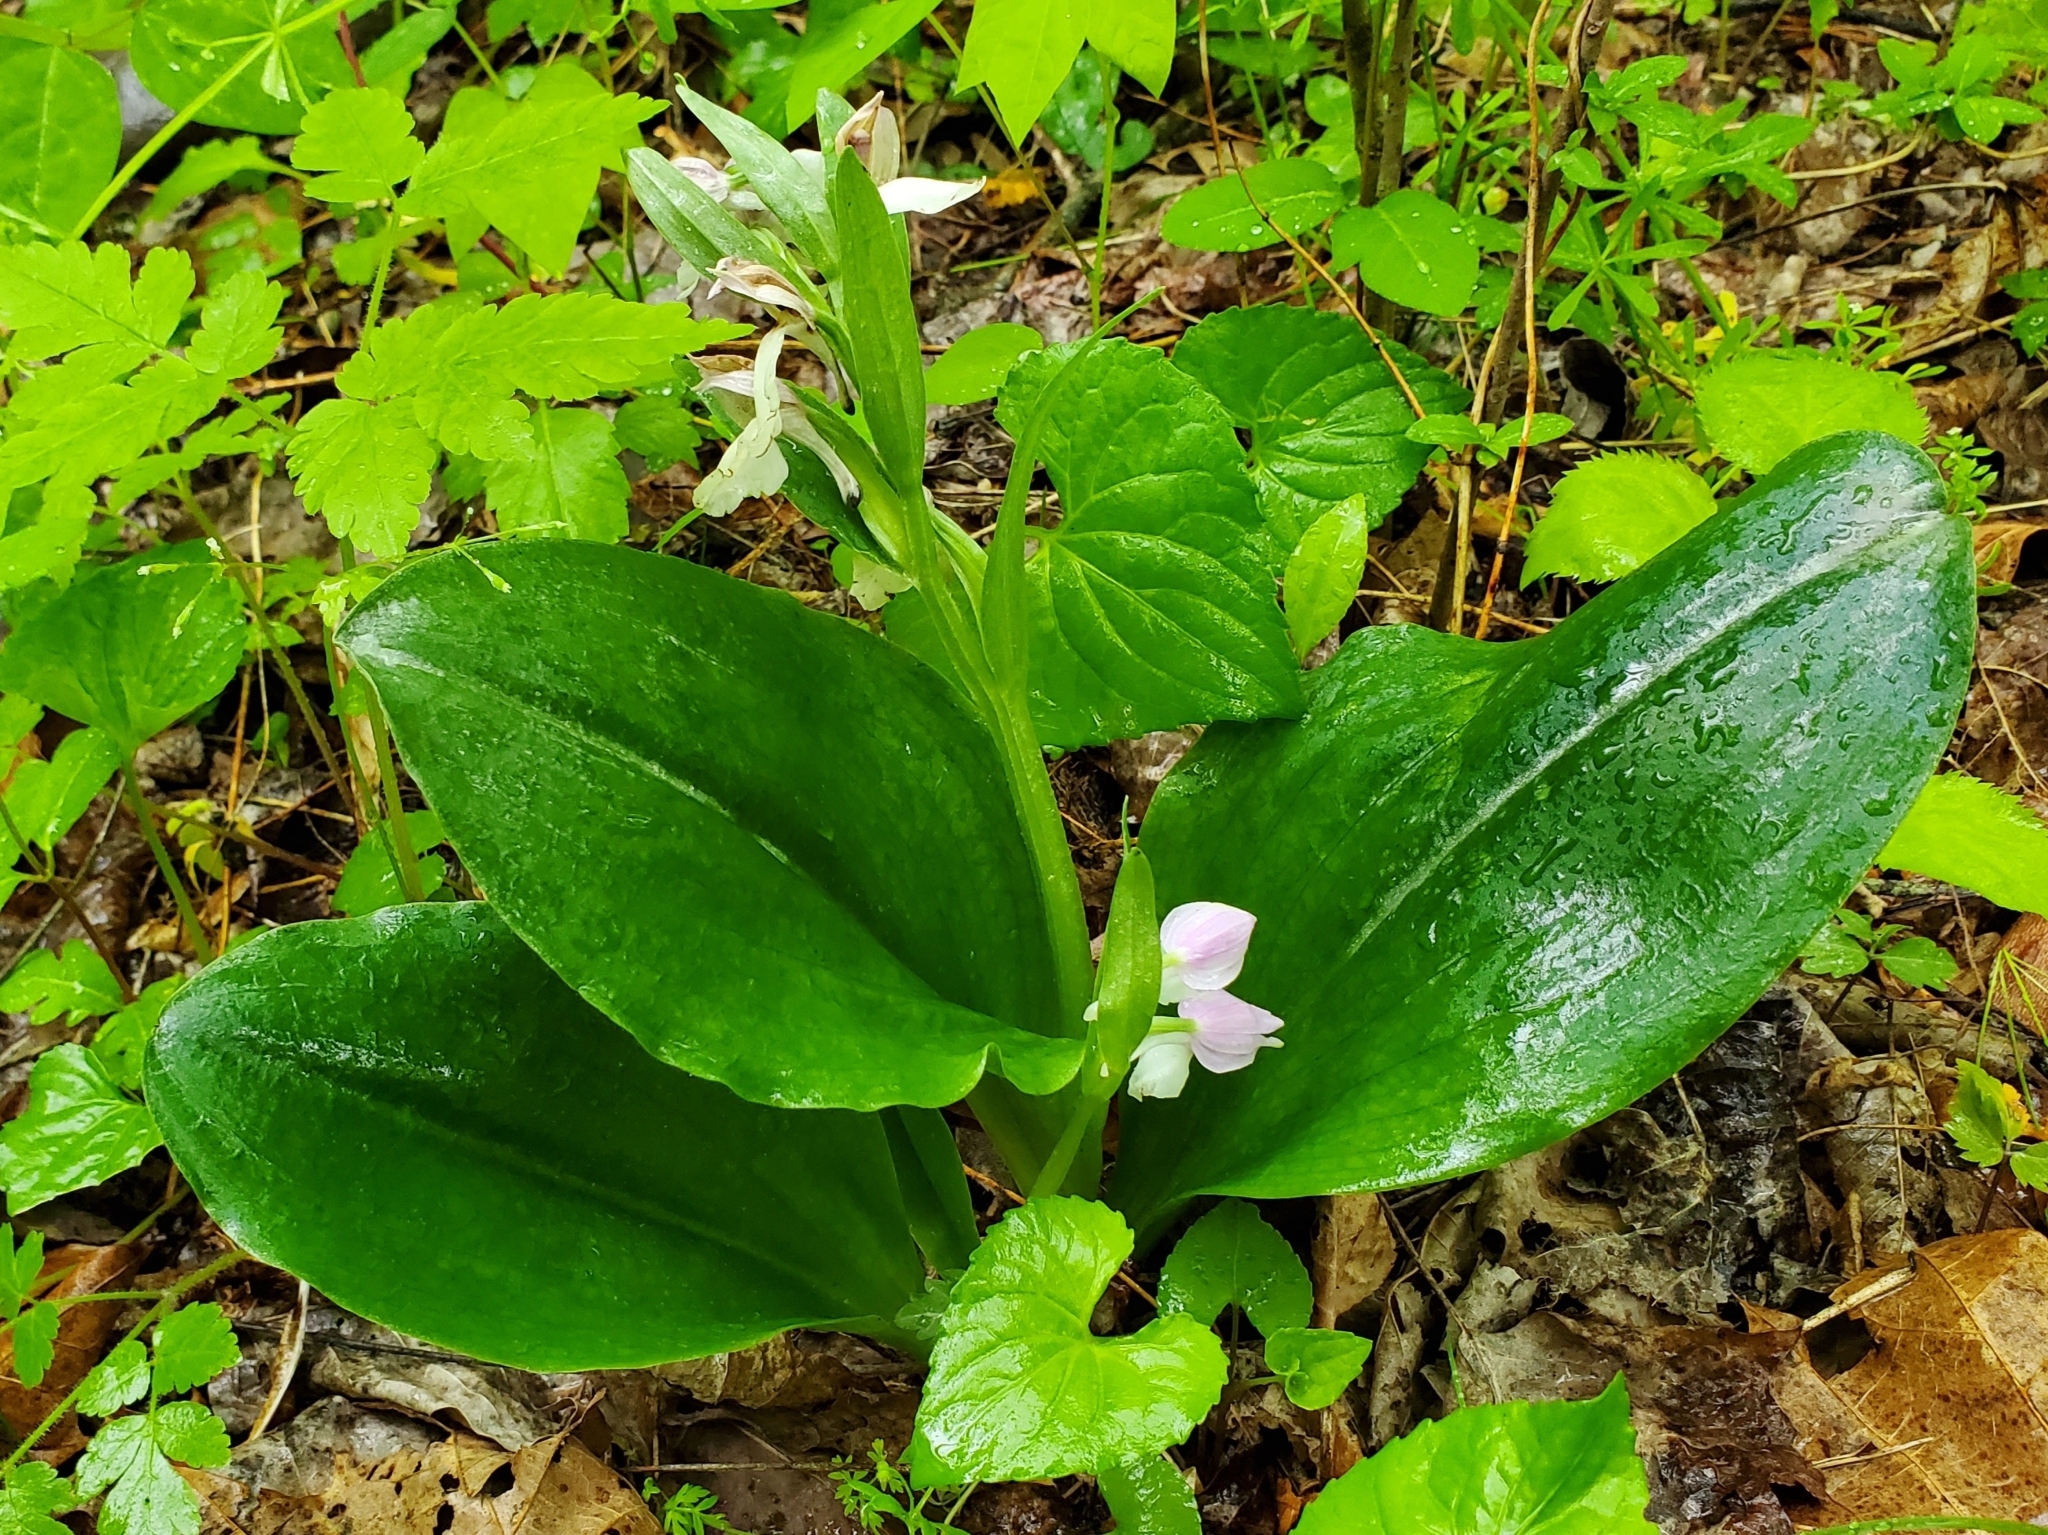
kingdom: Plantae
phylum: Tracheophyta
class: Liliopsida
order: Asparagales
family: Orchidaceae
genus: Galearis
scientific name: Galearis spectabilis
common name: Purple-hooded orchis
